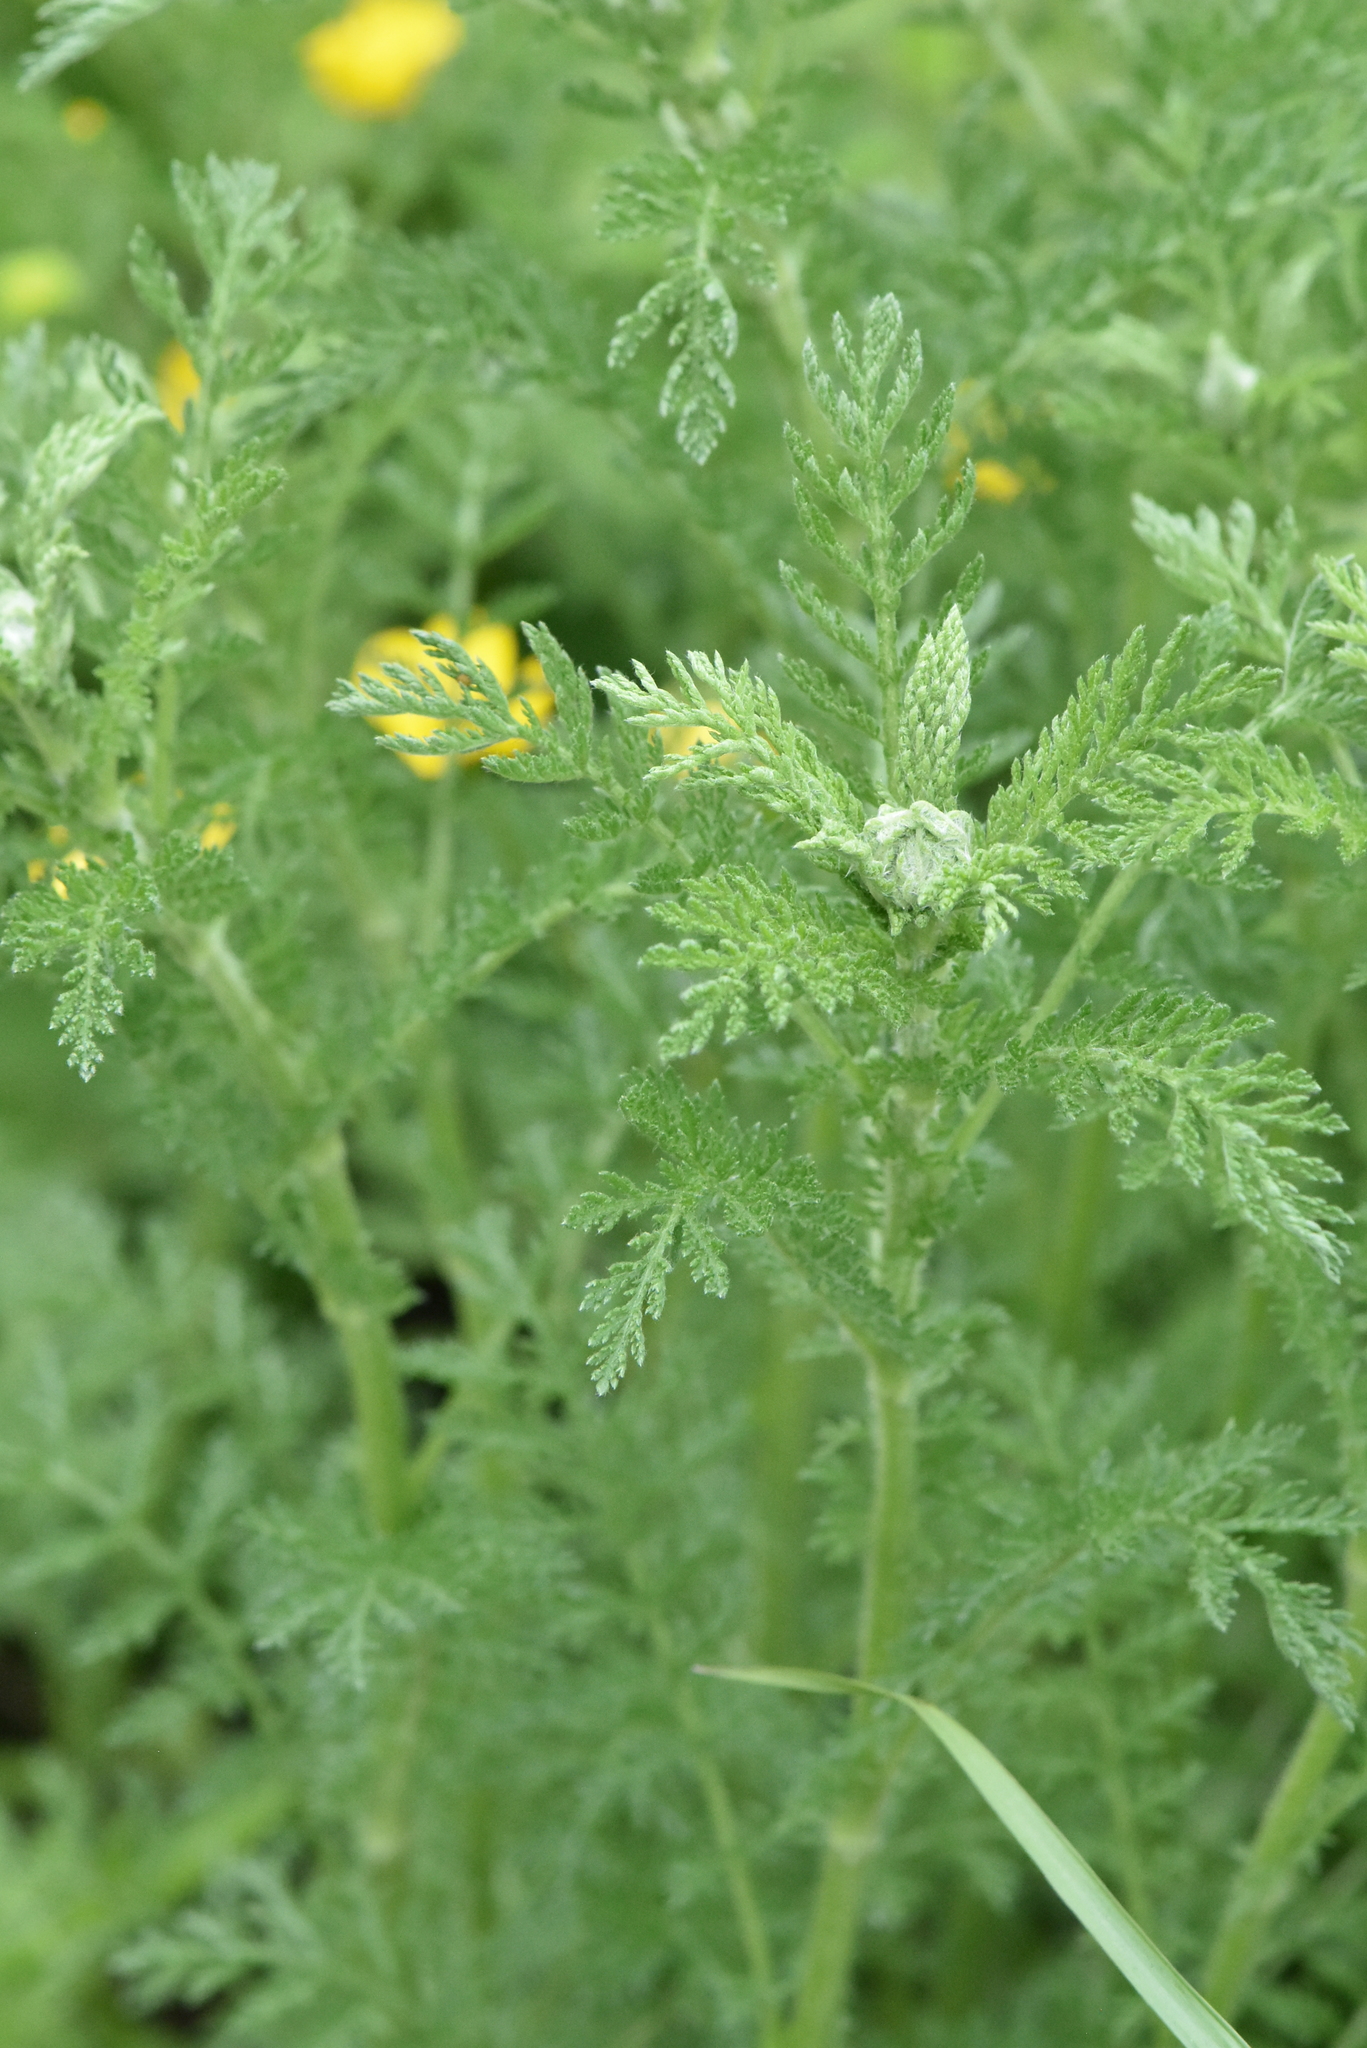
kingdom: Plantae
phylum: Tracheophyta
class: Magnoliopsida
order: Asterales
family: Asteraceae
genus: Achillea
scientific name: Achillea nobilis
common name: Noble yarrow
